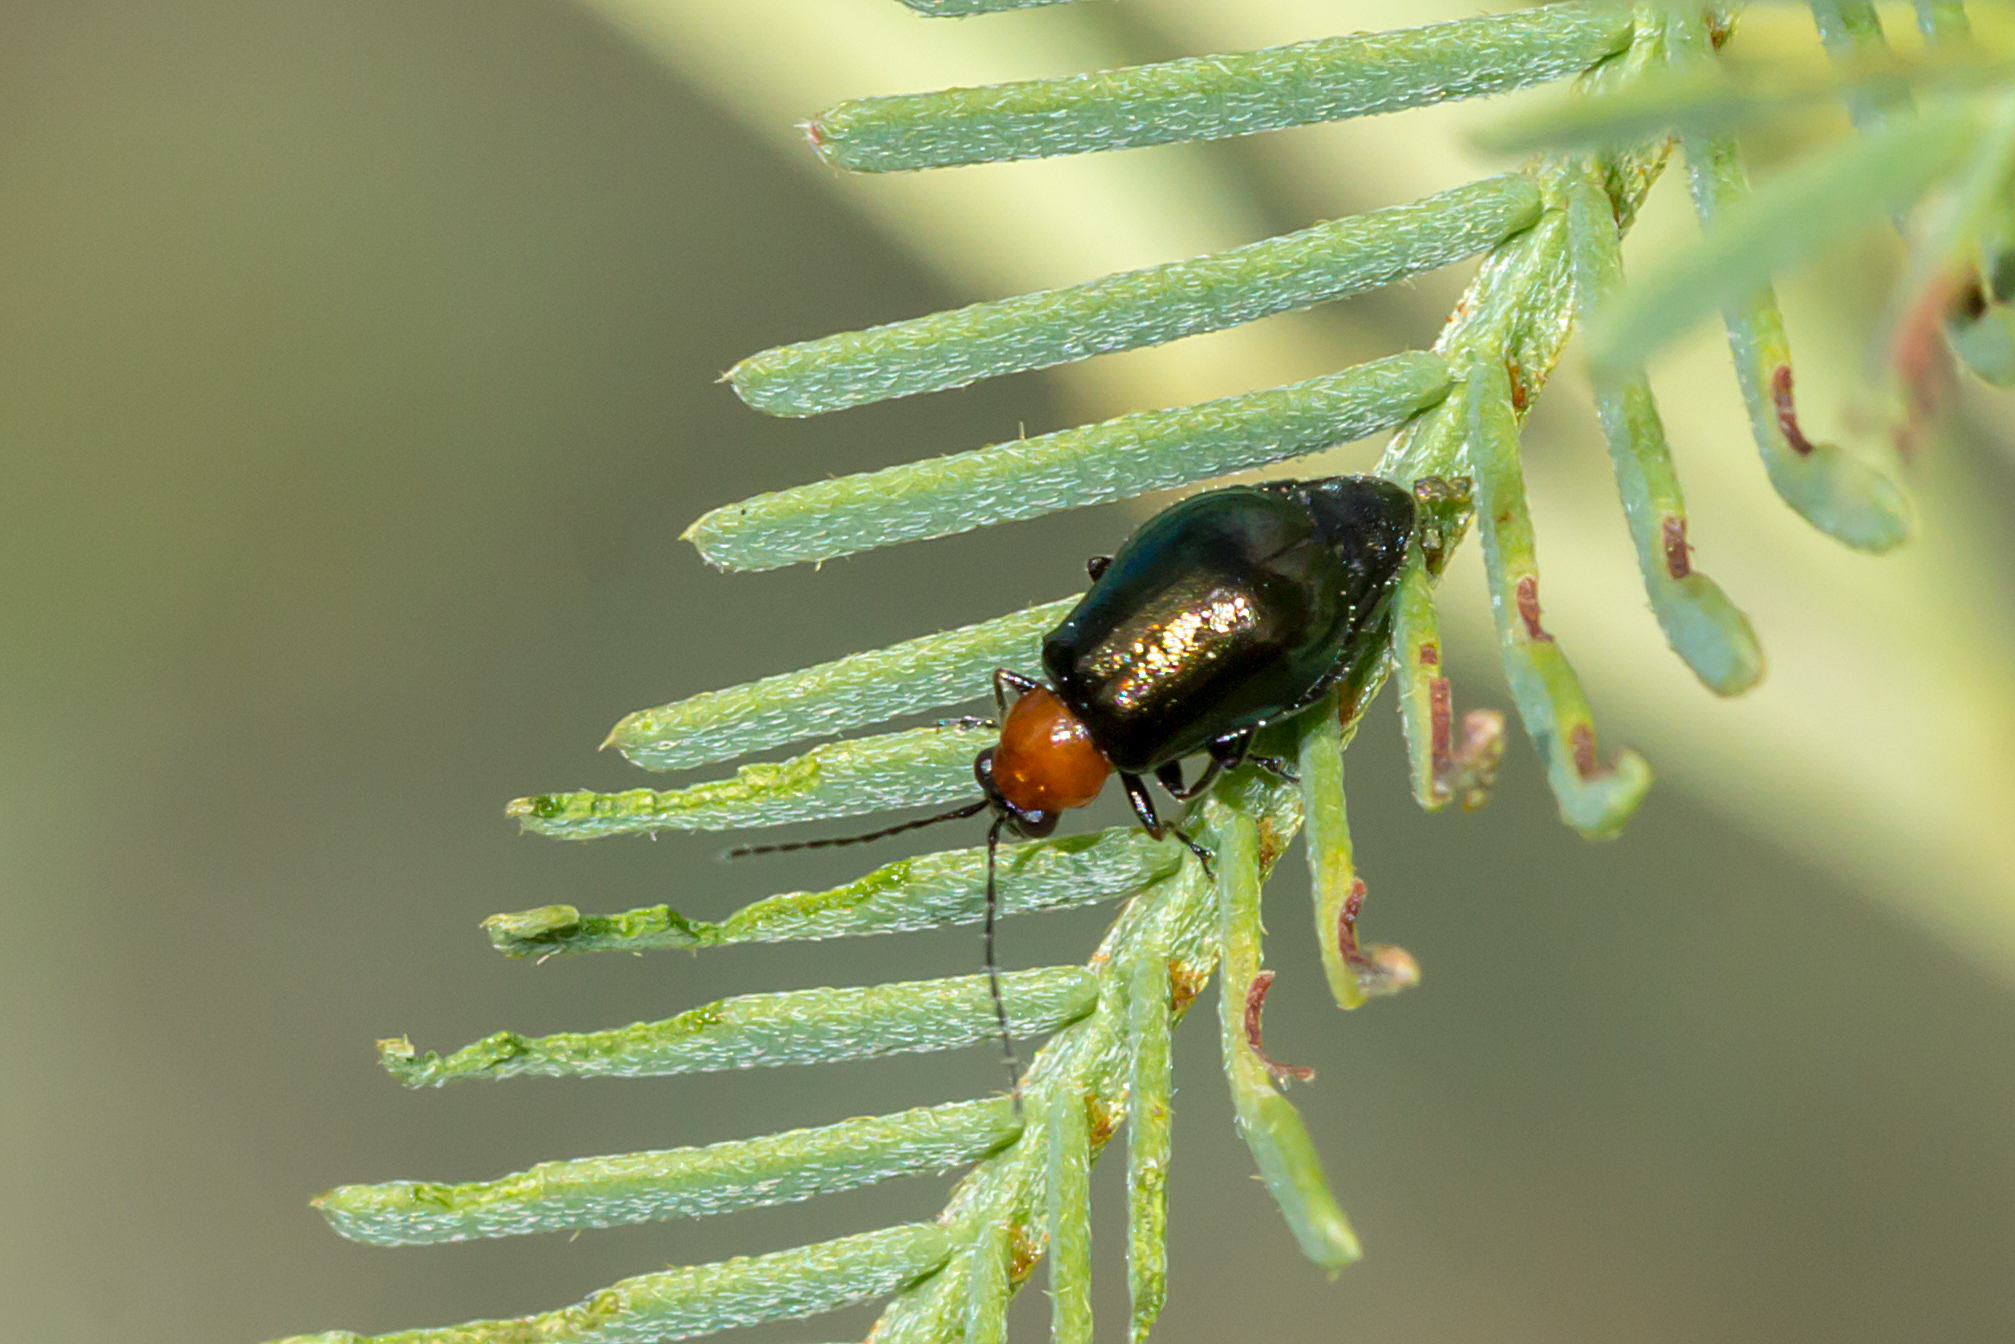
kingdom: Animalia
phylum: Arthropoda
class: Insecta
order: Coleoptera
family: Chrysomelidae
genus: Adoxia
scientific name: Adoxia
